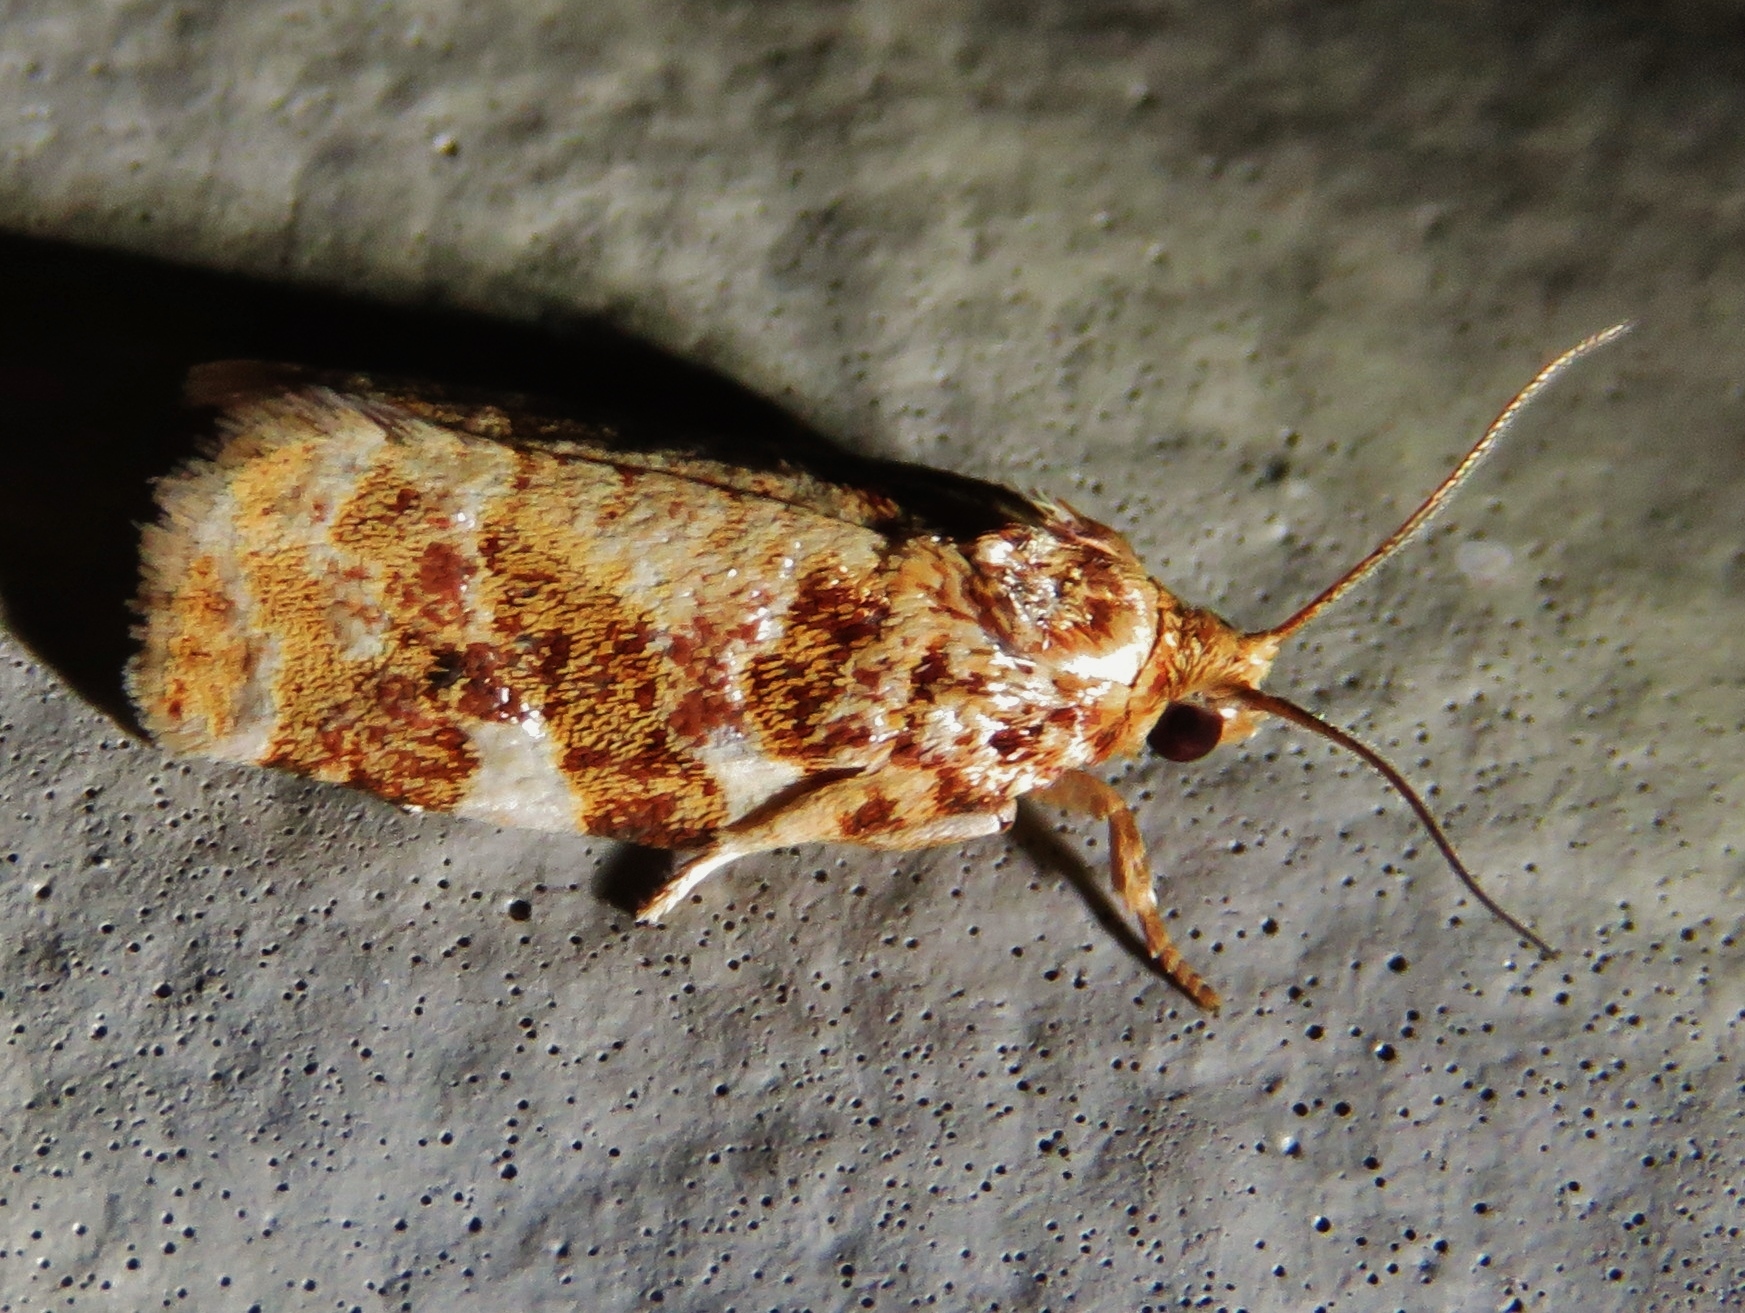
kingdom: Animalia
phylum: Arthropoda
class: Insecta
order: Lepidoptera
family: Tortricidae
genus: Archips
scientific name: Archips argyrospila
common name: Fruit-tree leafroller moth
